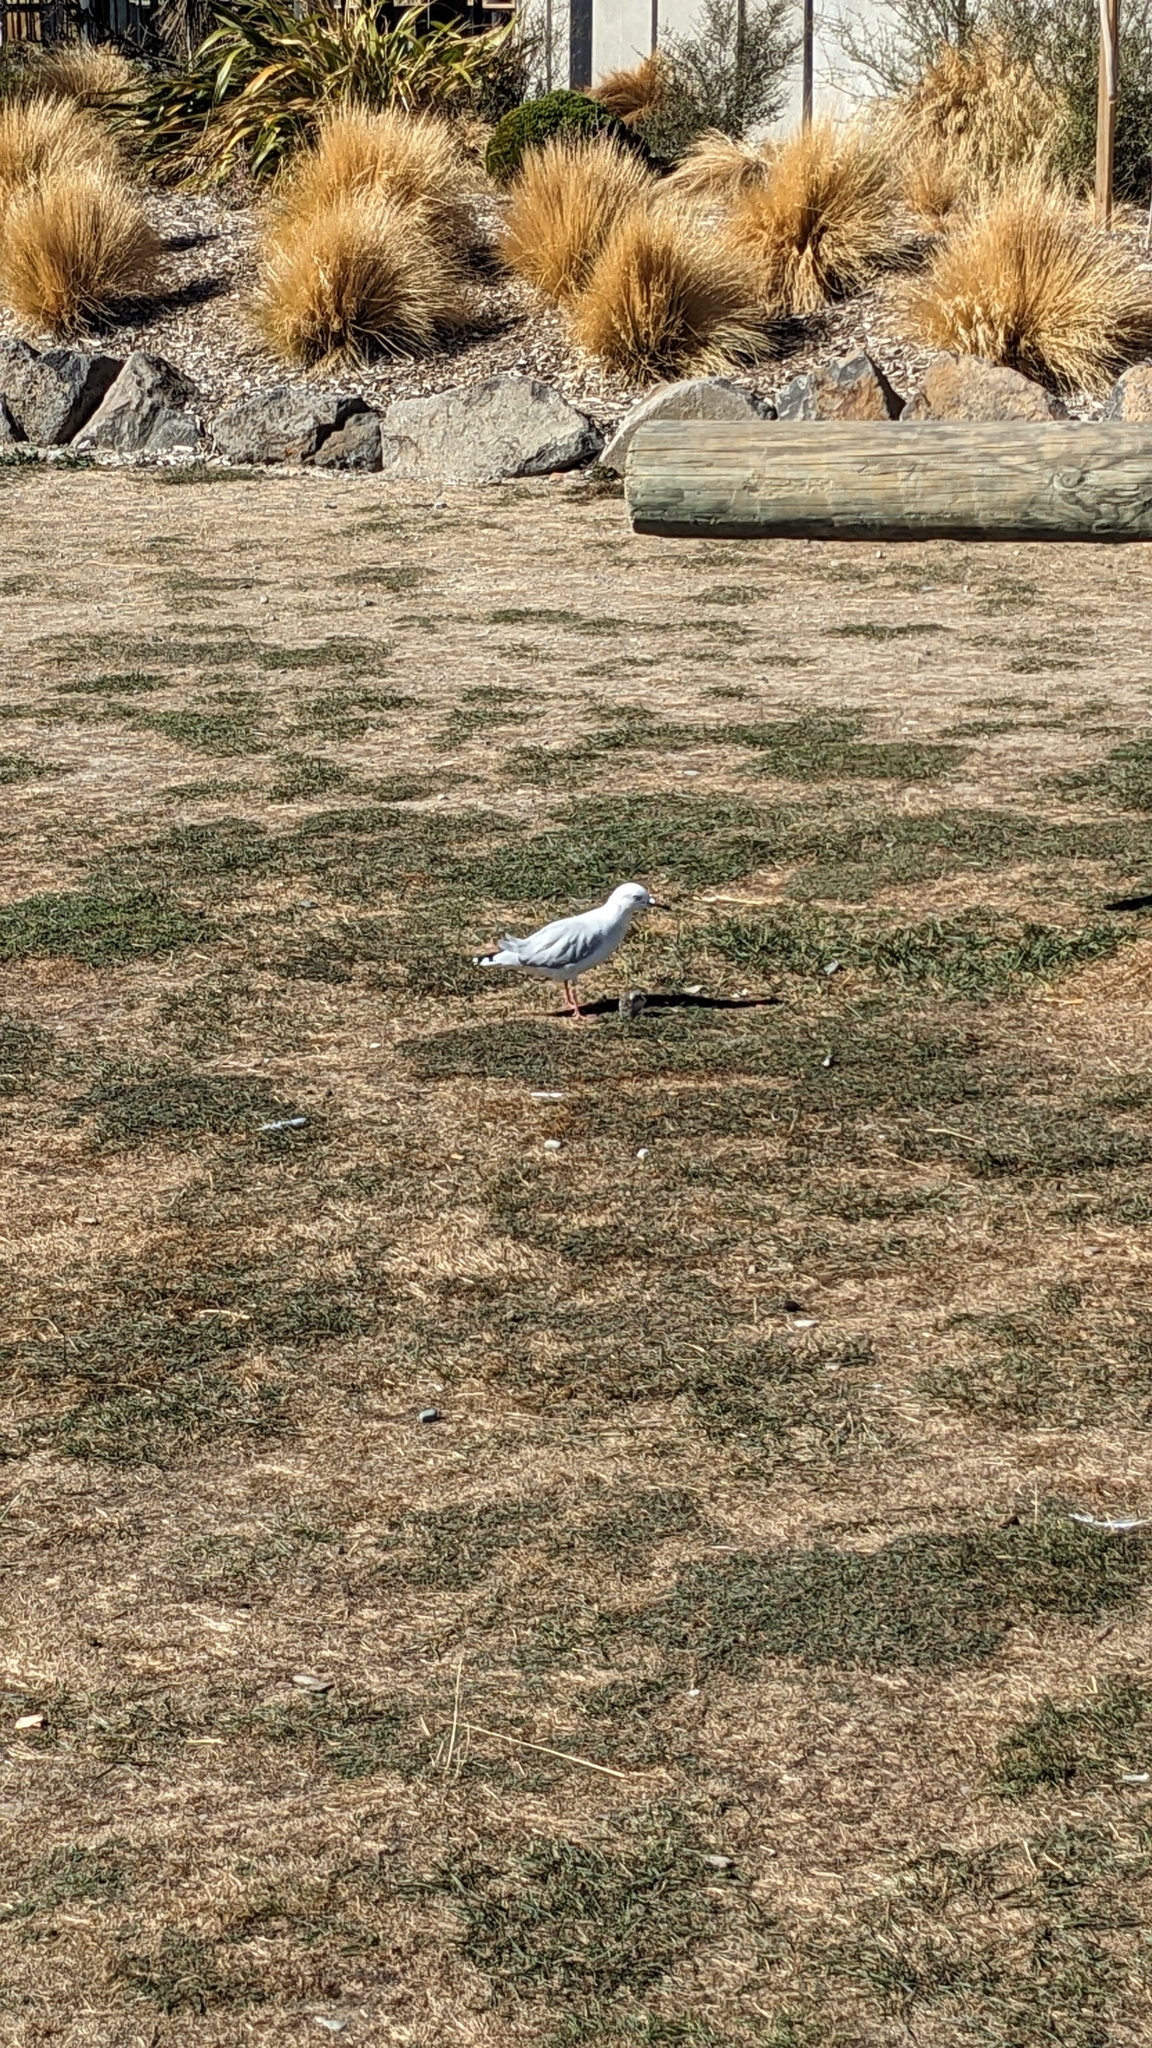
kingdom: Animalia
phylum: Chordata
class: Aves
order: Charadriiformes
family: Laridae
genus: Chroicocephalus
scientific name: Chroicocephalus bulleri
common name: Black-billed gull
